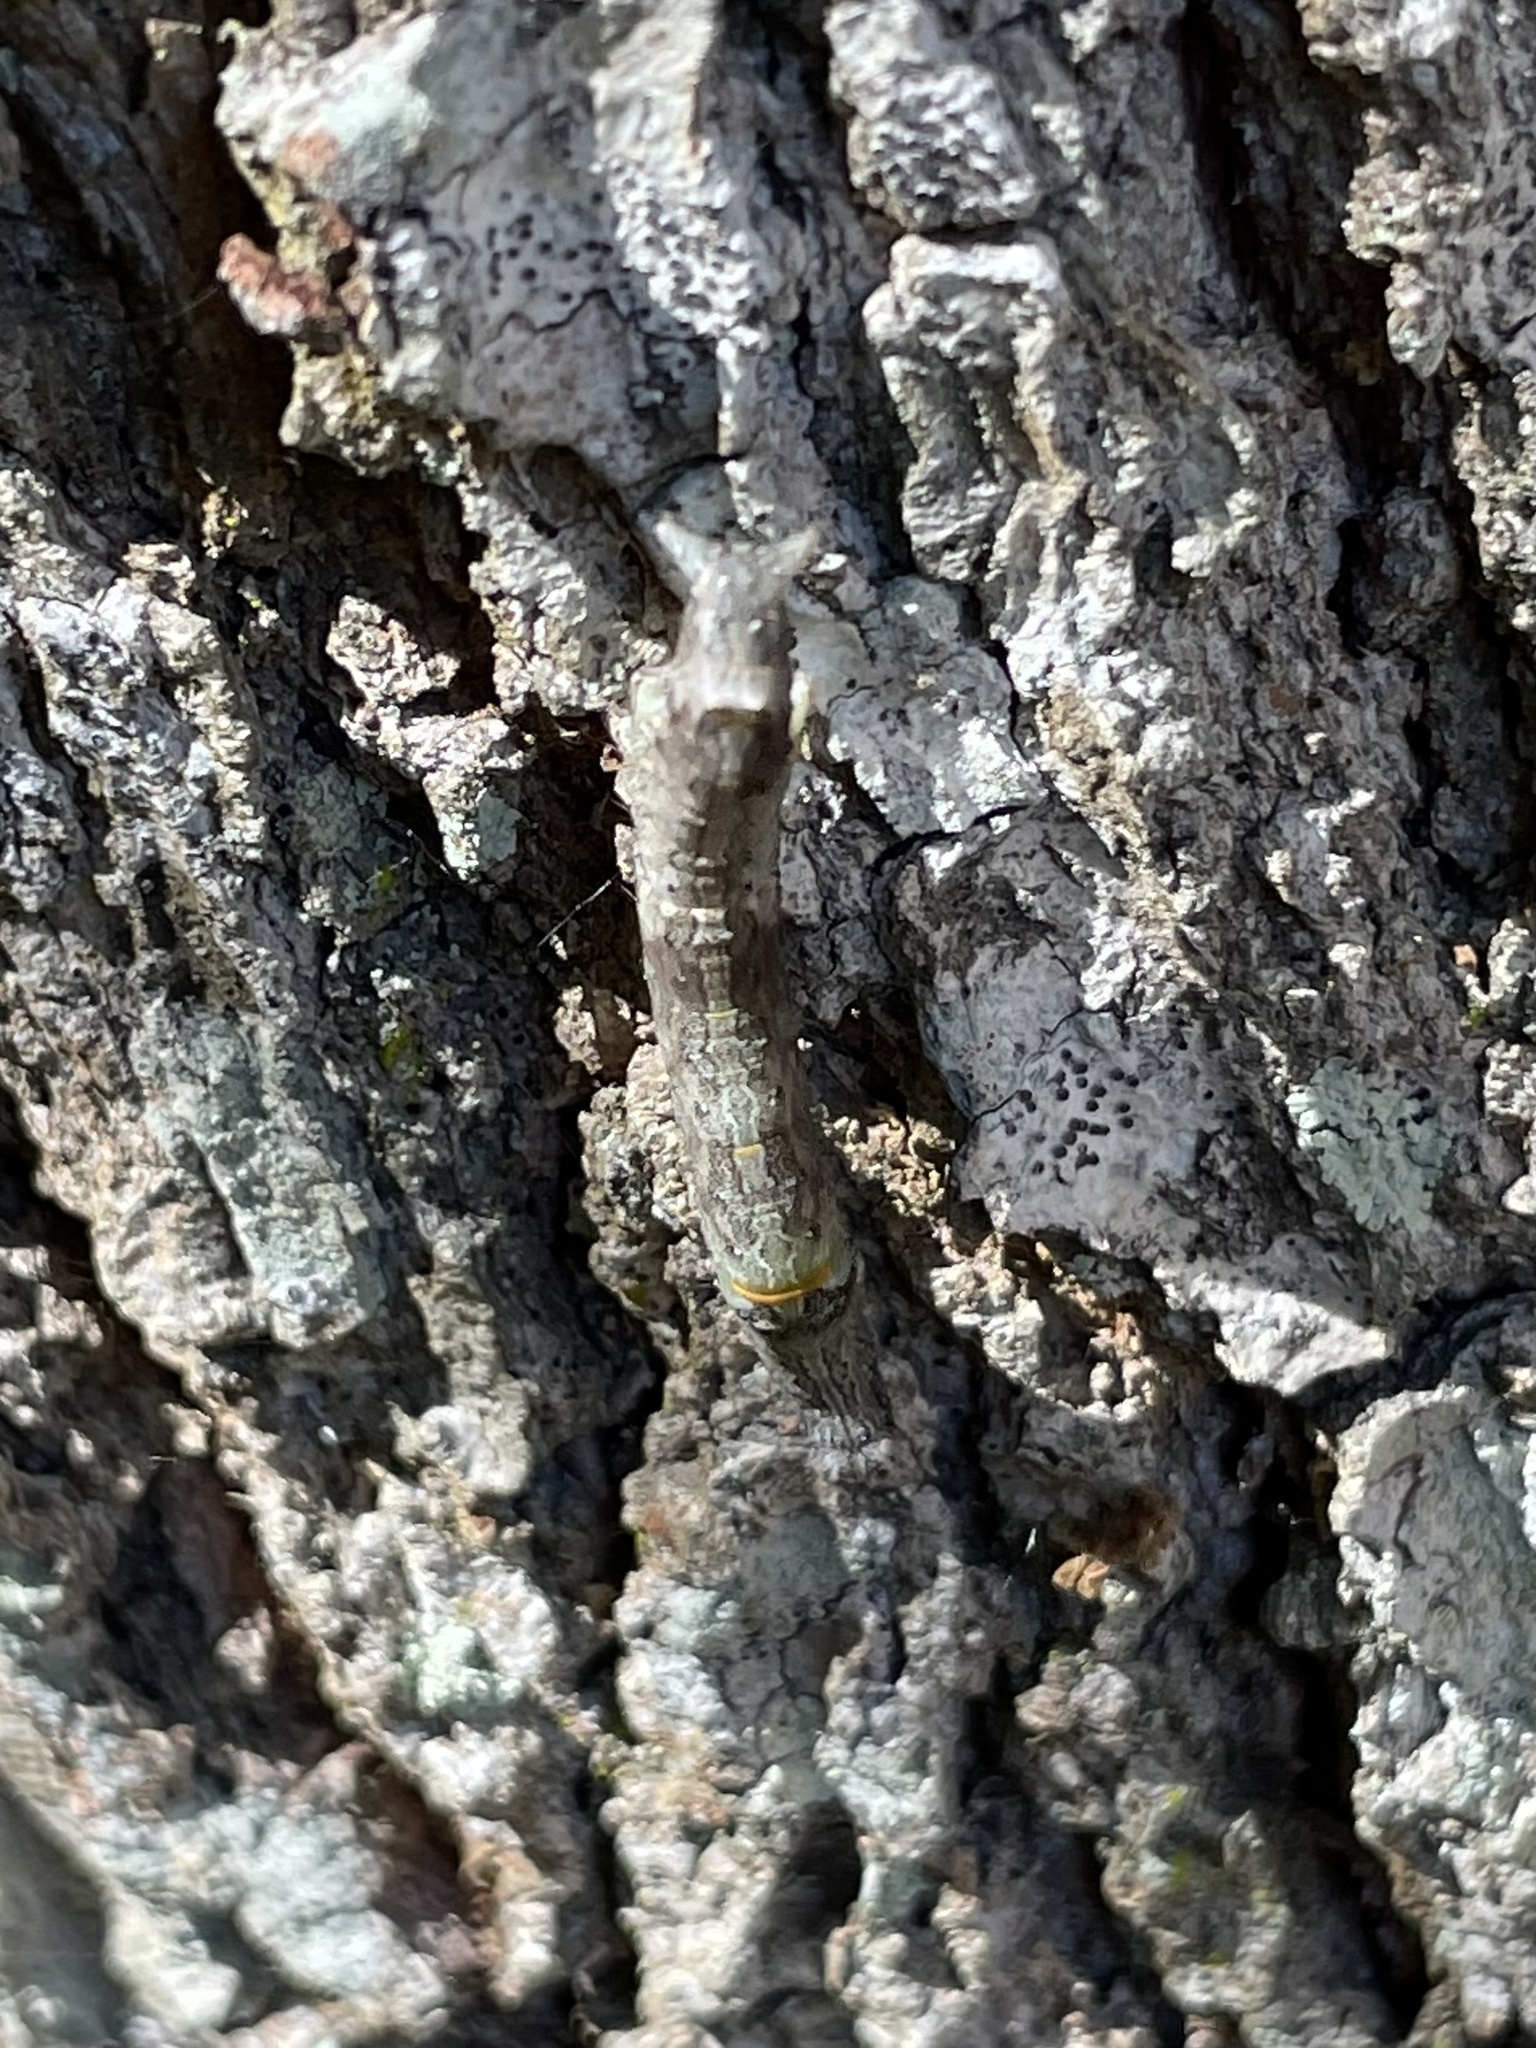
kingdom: Animalia
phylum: Arthropoda
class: Insecta
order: Lepidoptera
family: Geometridae
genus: Lycia
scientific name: Lycia ypsilon
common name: Wooly gray
